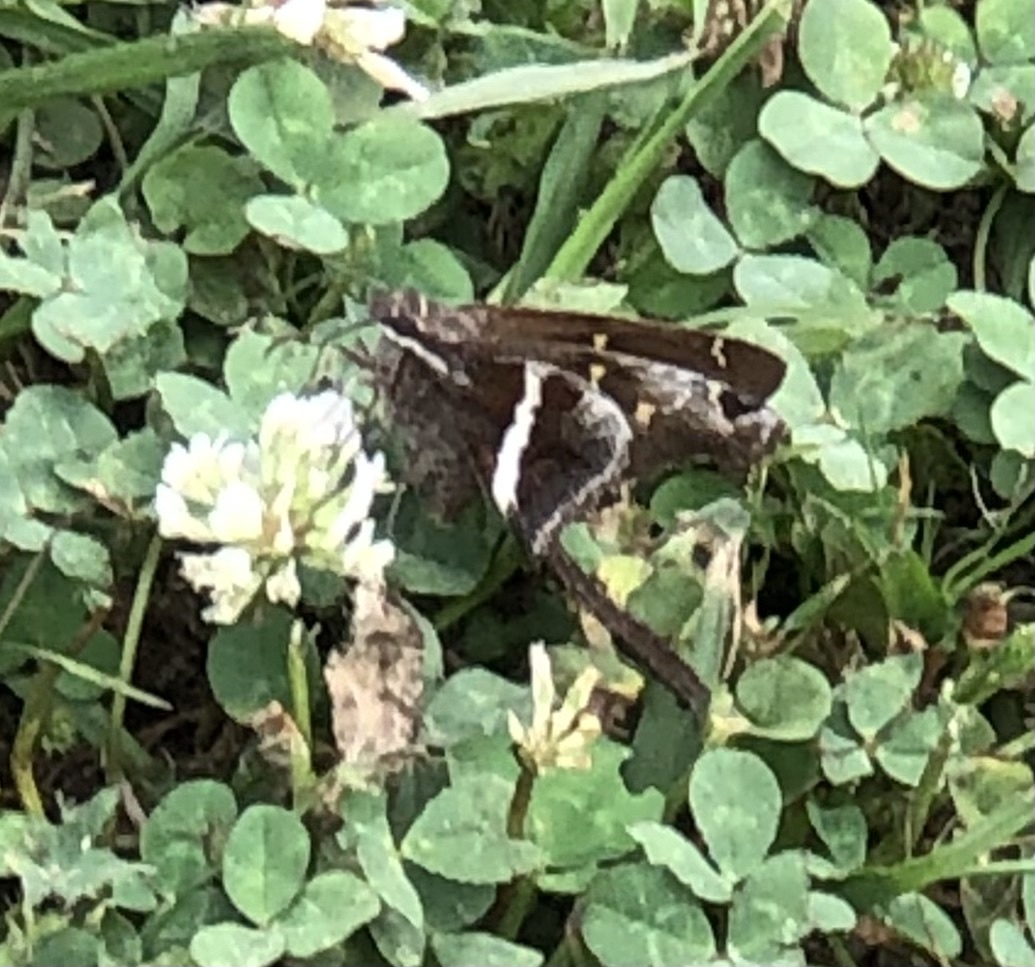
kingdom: Animalia
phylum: Arthropoda
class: Insecta
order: Lepidoptera
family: Hesperiidae
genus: Chioides
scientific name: Chioides catillus
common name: Silverbanded skipper
